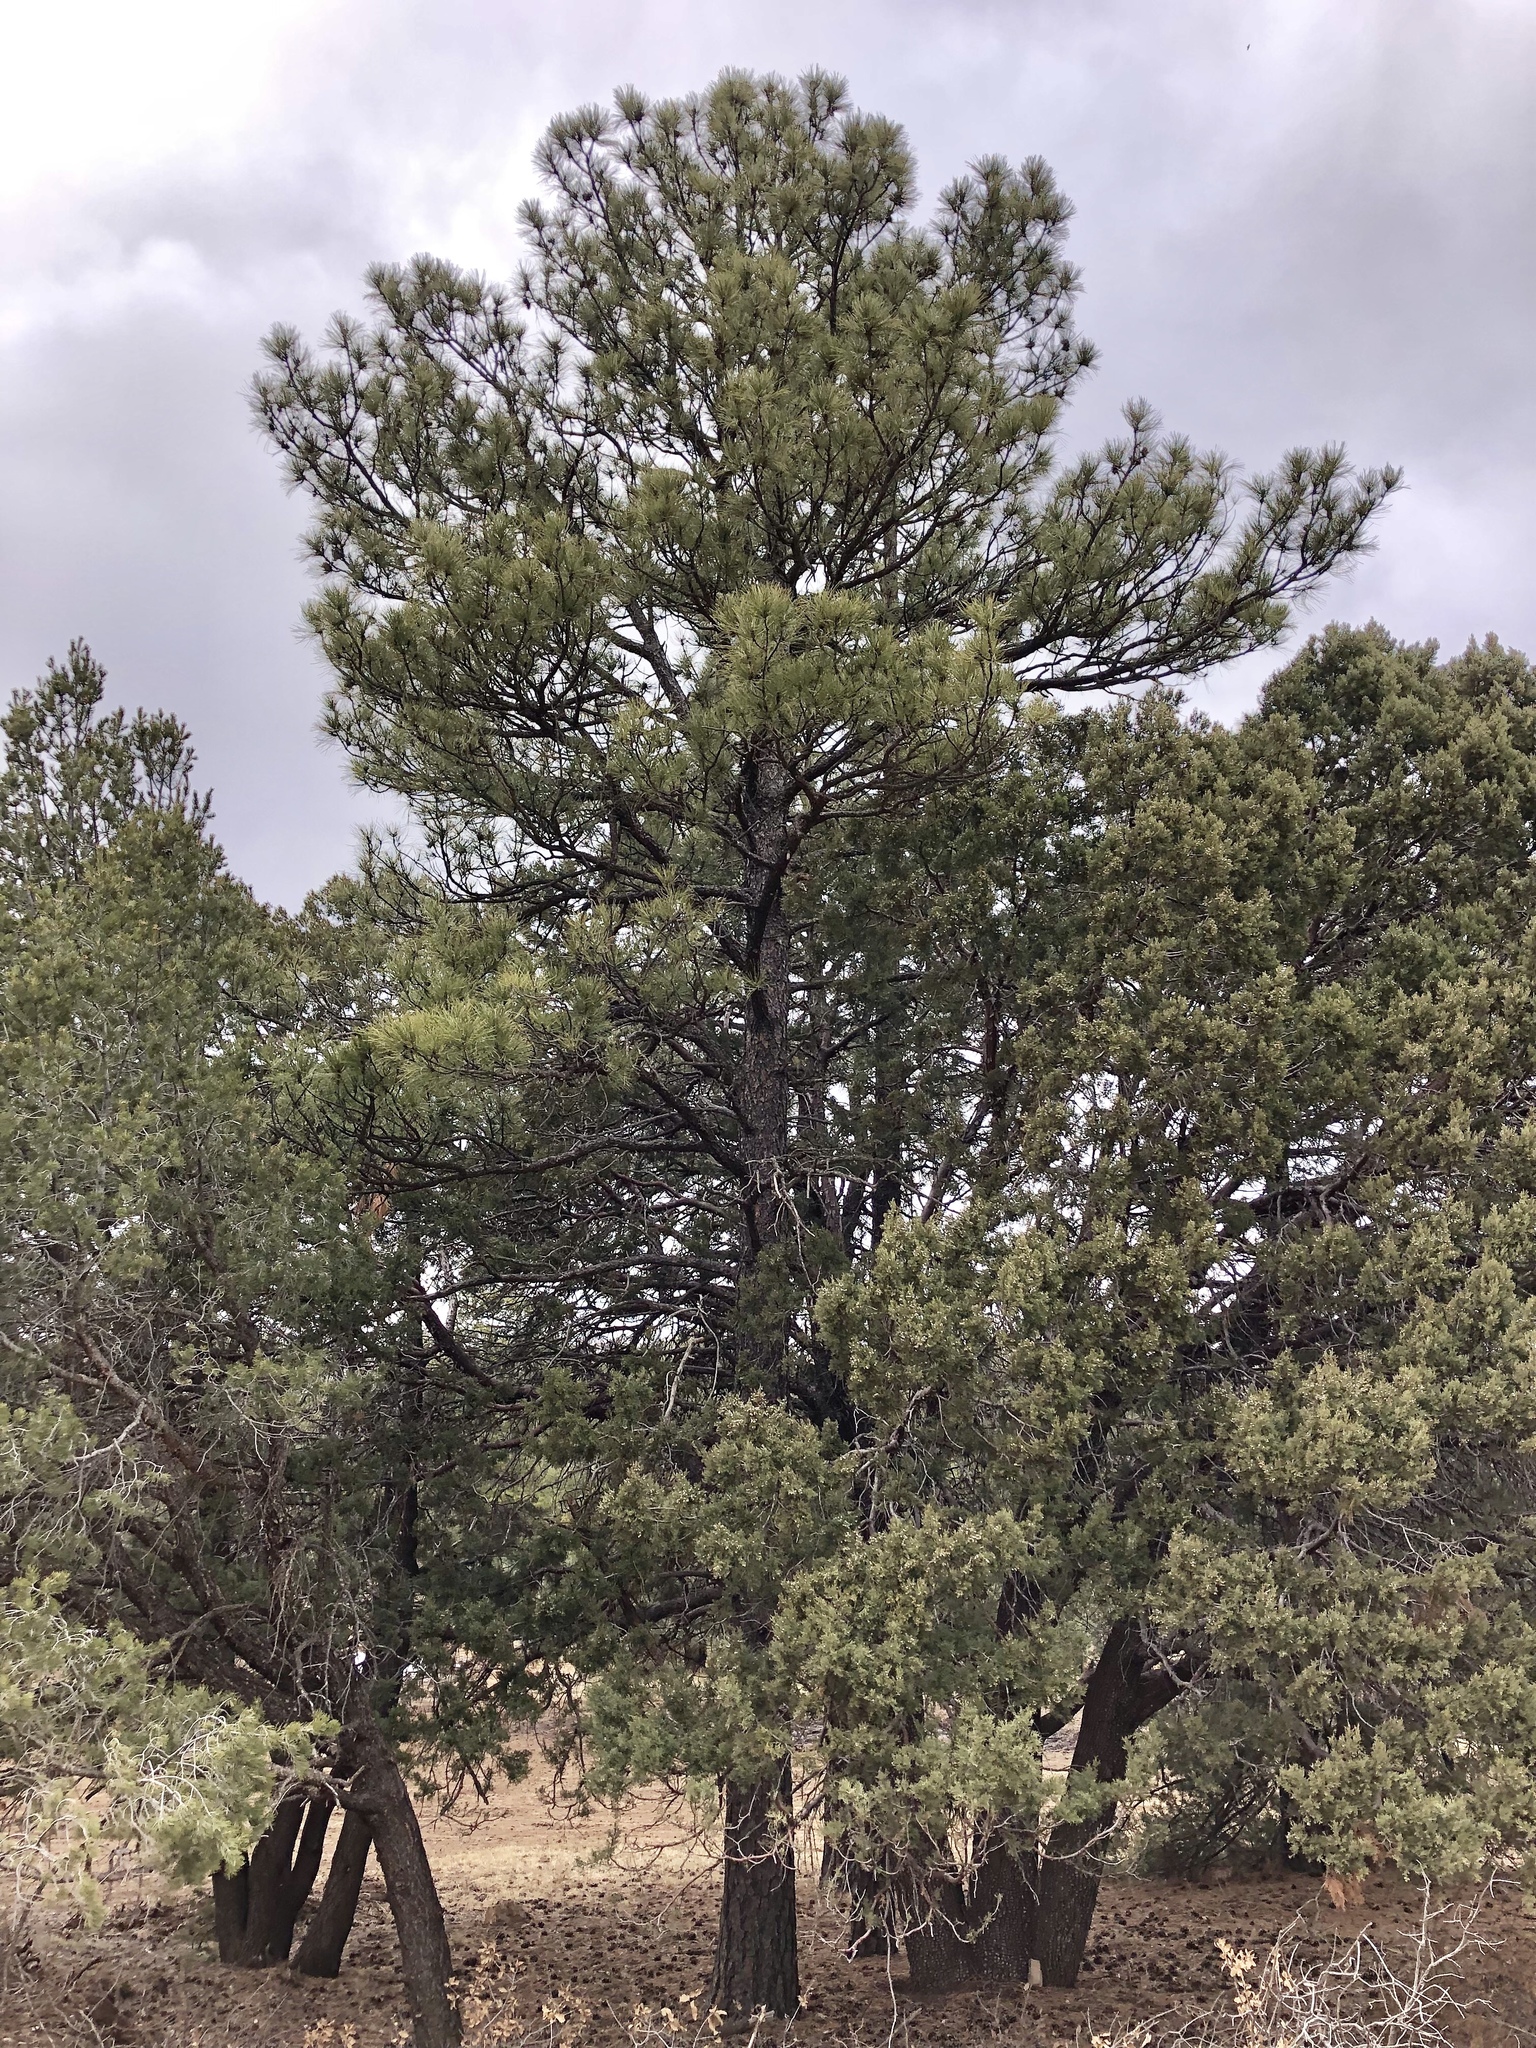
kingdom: Plantae
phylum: Tracheophyta
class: Pinopsida
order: Pinales
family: Pinaceae
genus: Pinus
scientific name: Pinus ponderosa
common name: Western yellow-pine
